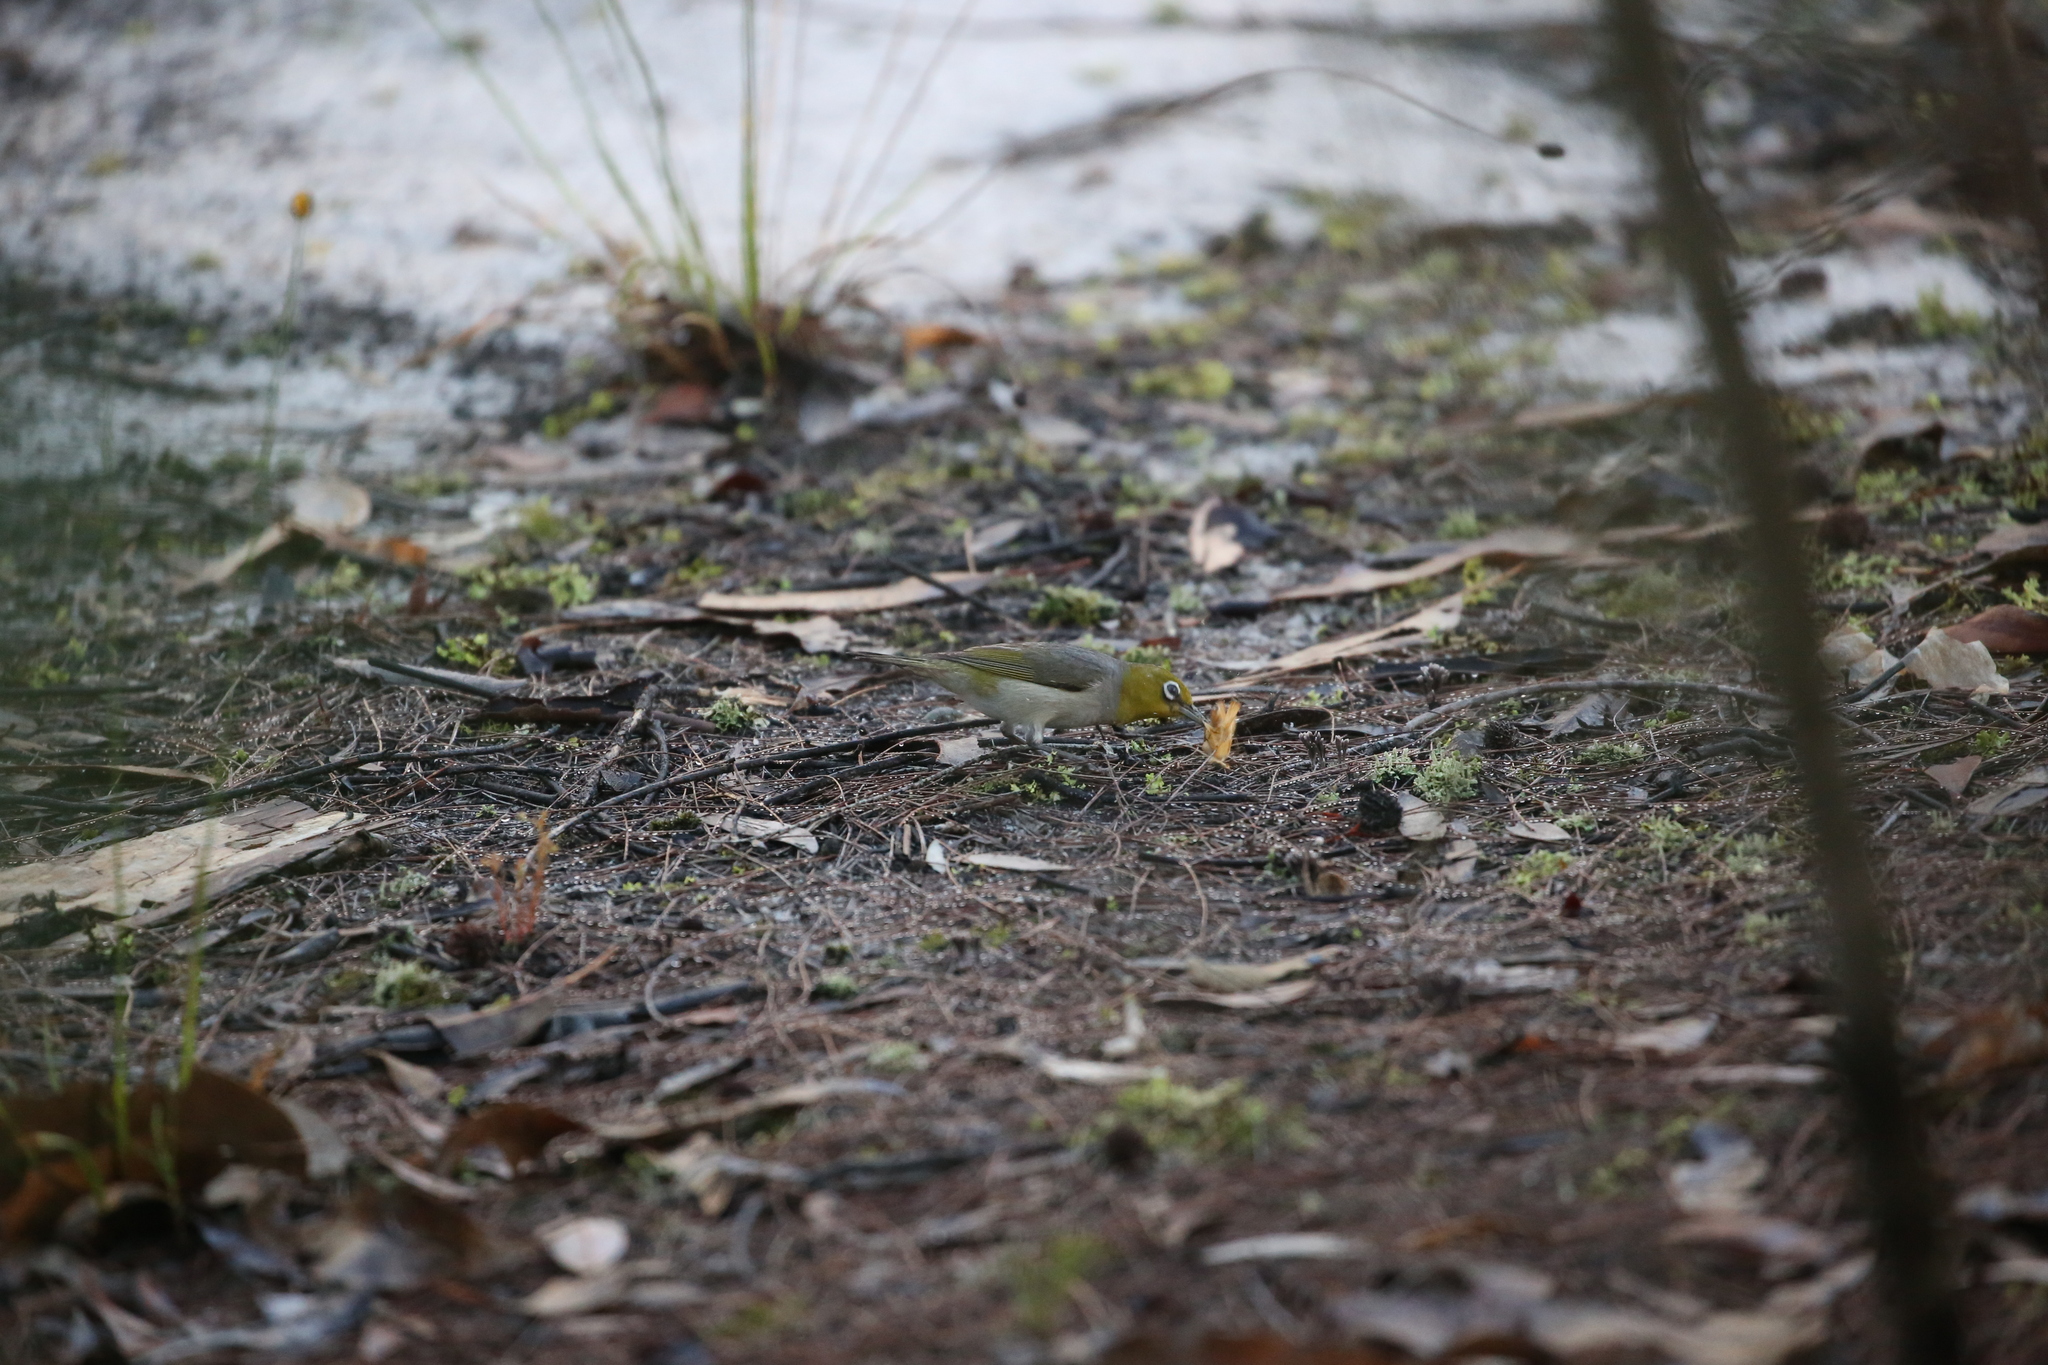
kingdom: Animalia
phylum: Chordata
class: Aves
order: Passeriformes
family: Zosteropidae
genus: Zosterops
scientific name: Zosterops lateralis
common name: Silvereye
